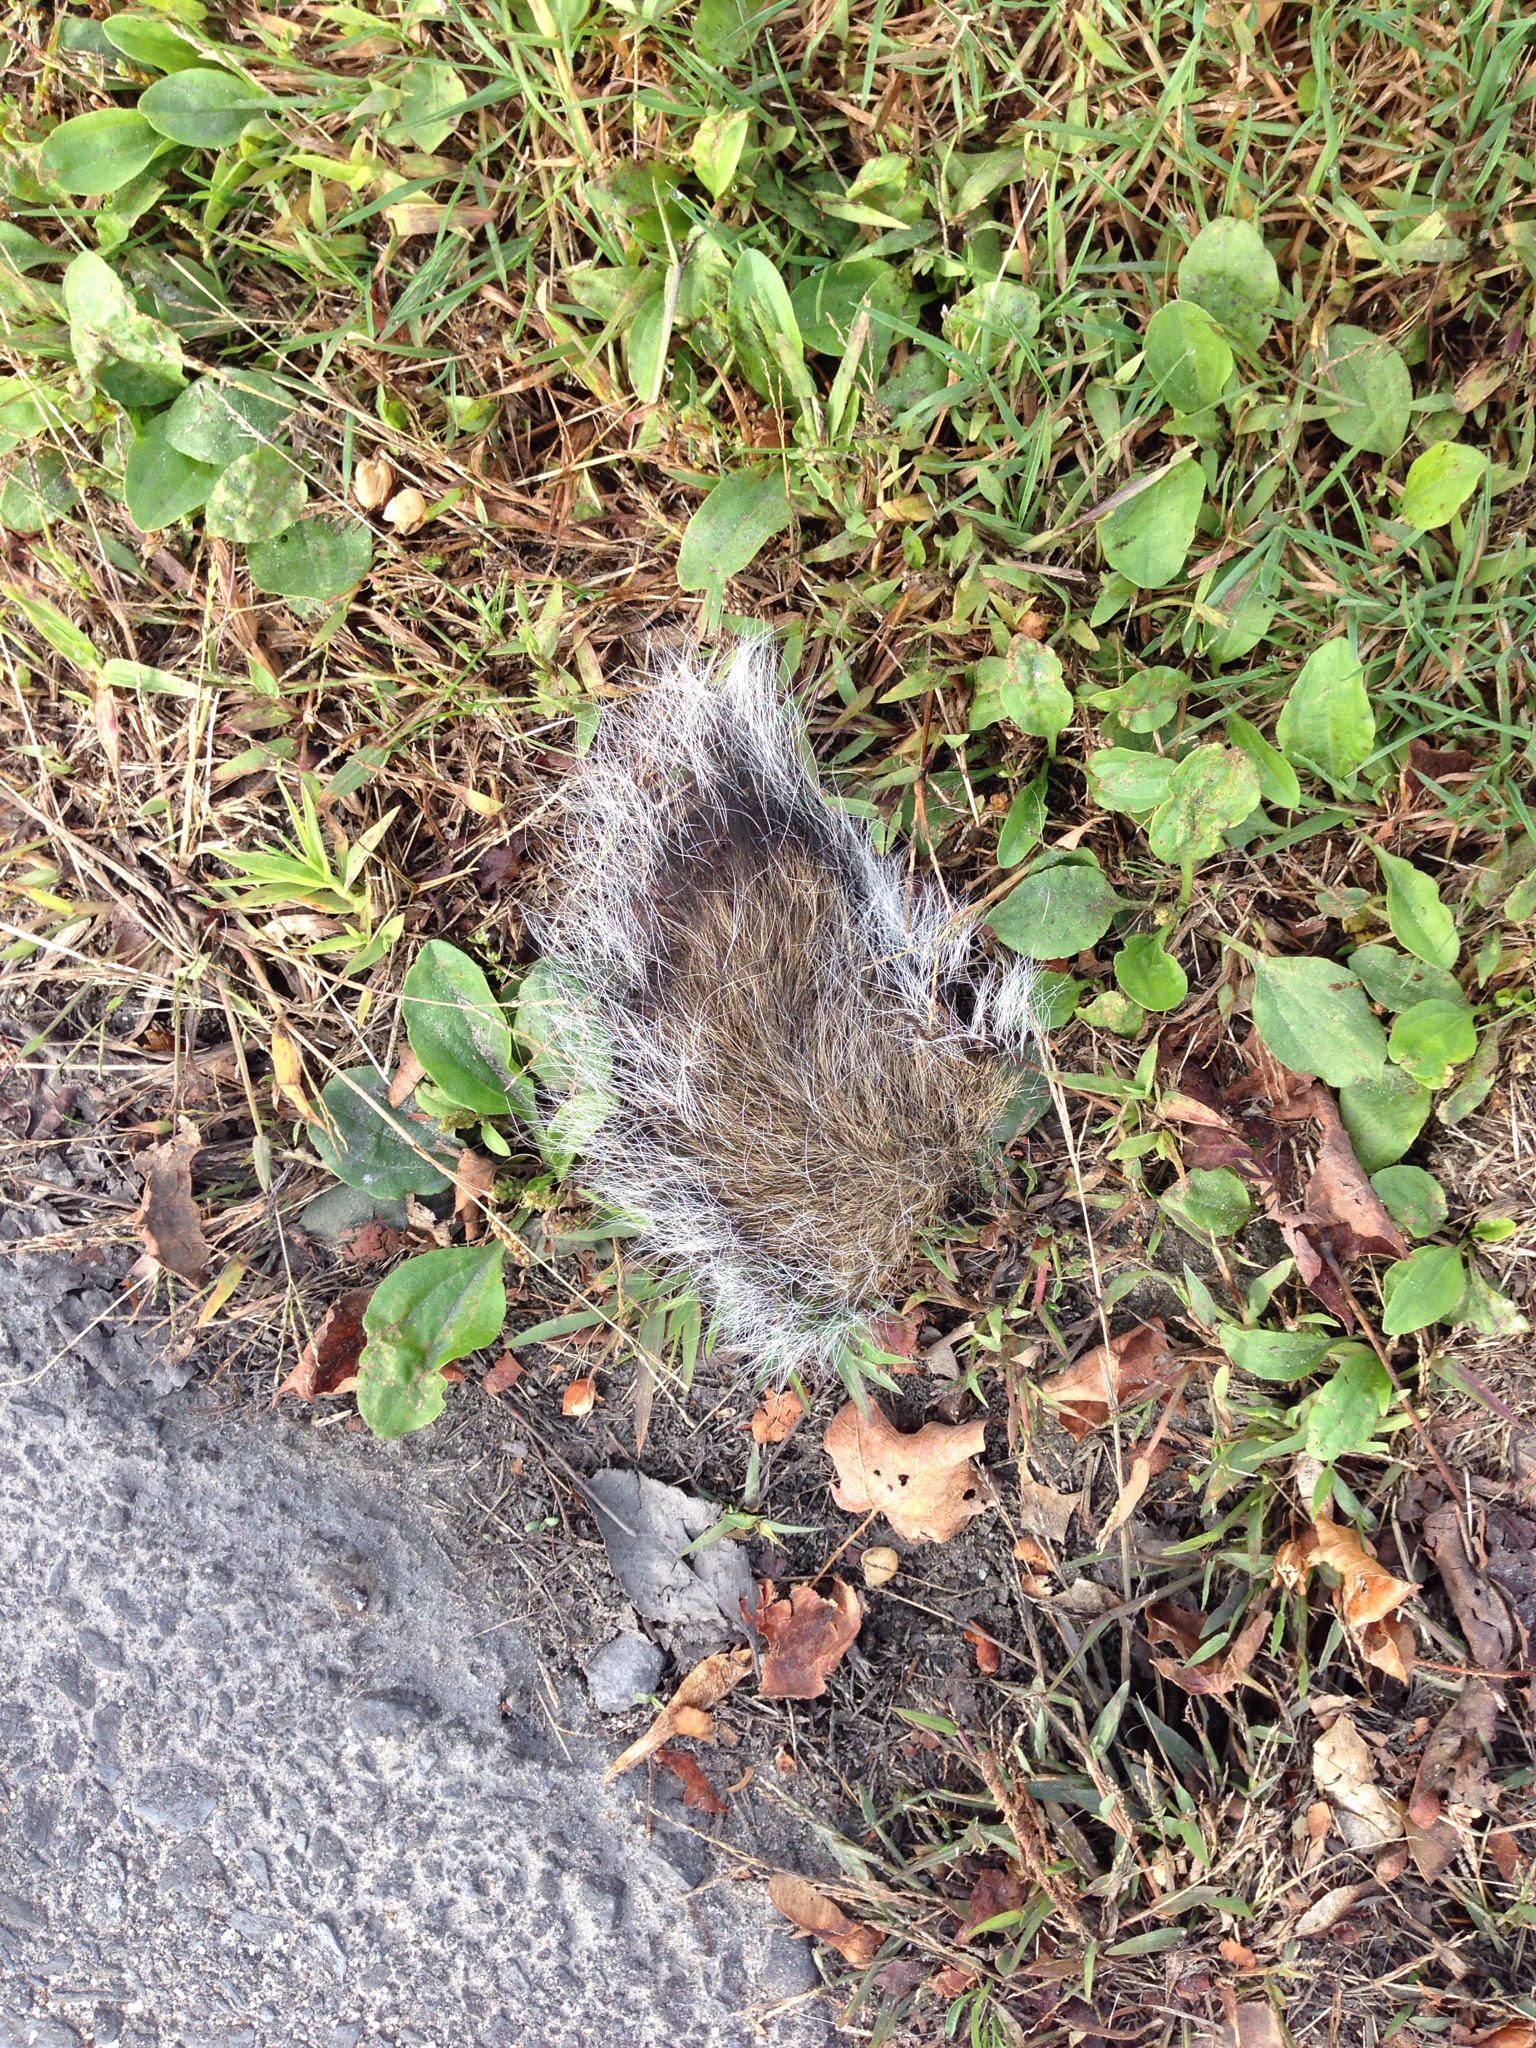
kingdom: Animalia
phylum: Chordata
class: Mammalia
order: Rodentia
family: Sciuridae
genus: Sciurus
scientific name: Sciurus carolinensis
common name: Eastern gray squirrel
